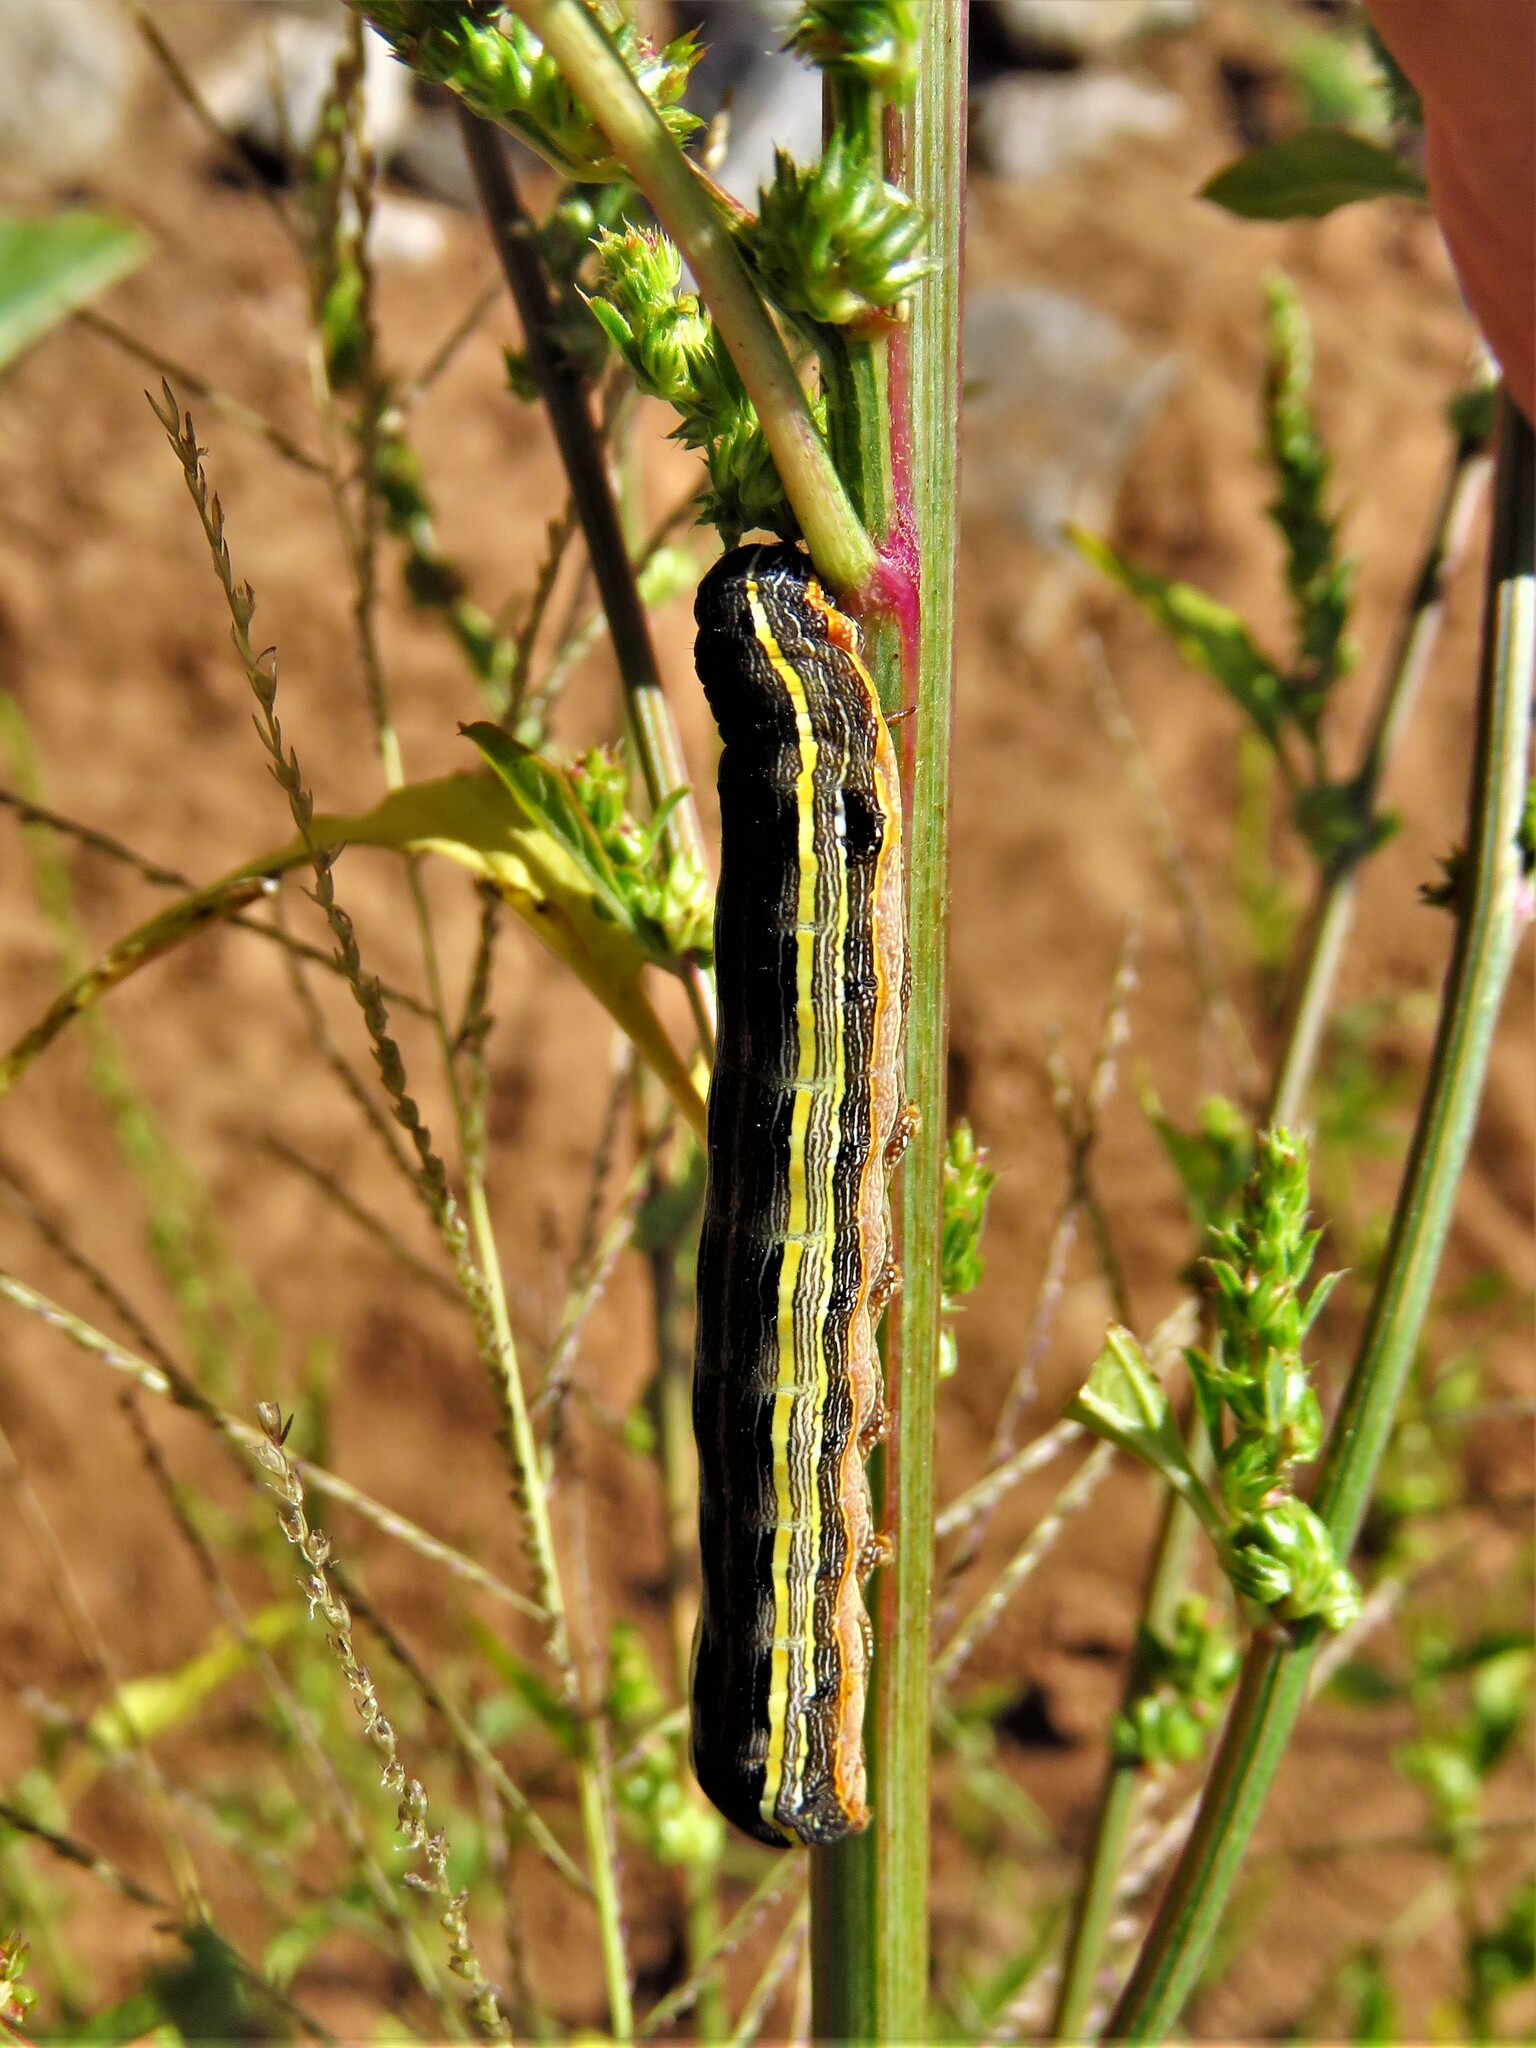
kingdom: Animalia
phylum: Arthropoda
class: Insecta
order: Lepidoptera
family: Noctuidae
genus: Spodoptera
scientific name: Spodoptera ornithogalli
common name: Yellow-striped armyworm
